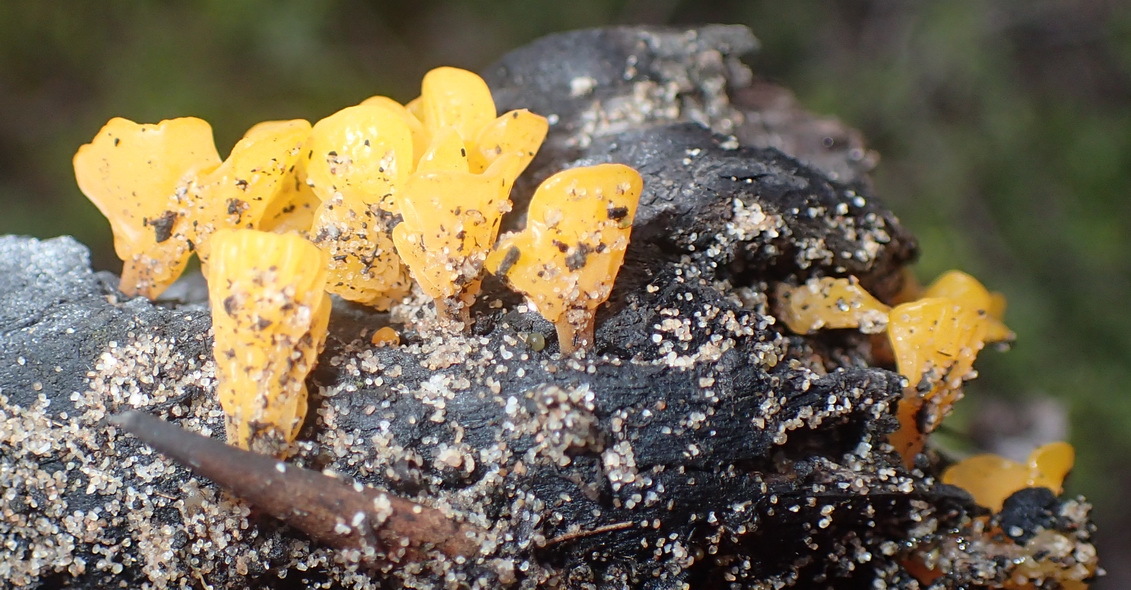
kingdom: Fungi
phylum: Basidiomycota
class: Dacrymycetes
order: Dacrymycetales
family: Dacrymycetaceae
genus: Dacrymyces
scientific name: Dacrymyces spathularius
